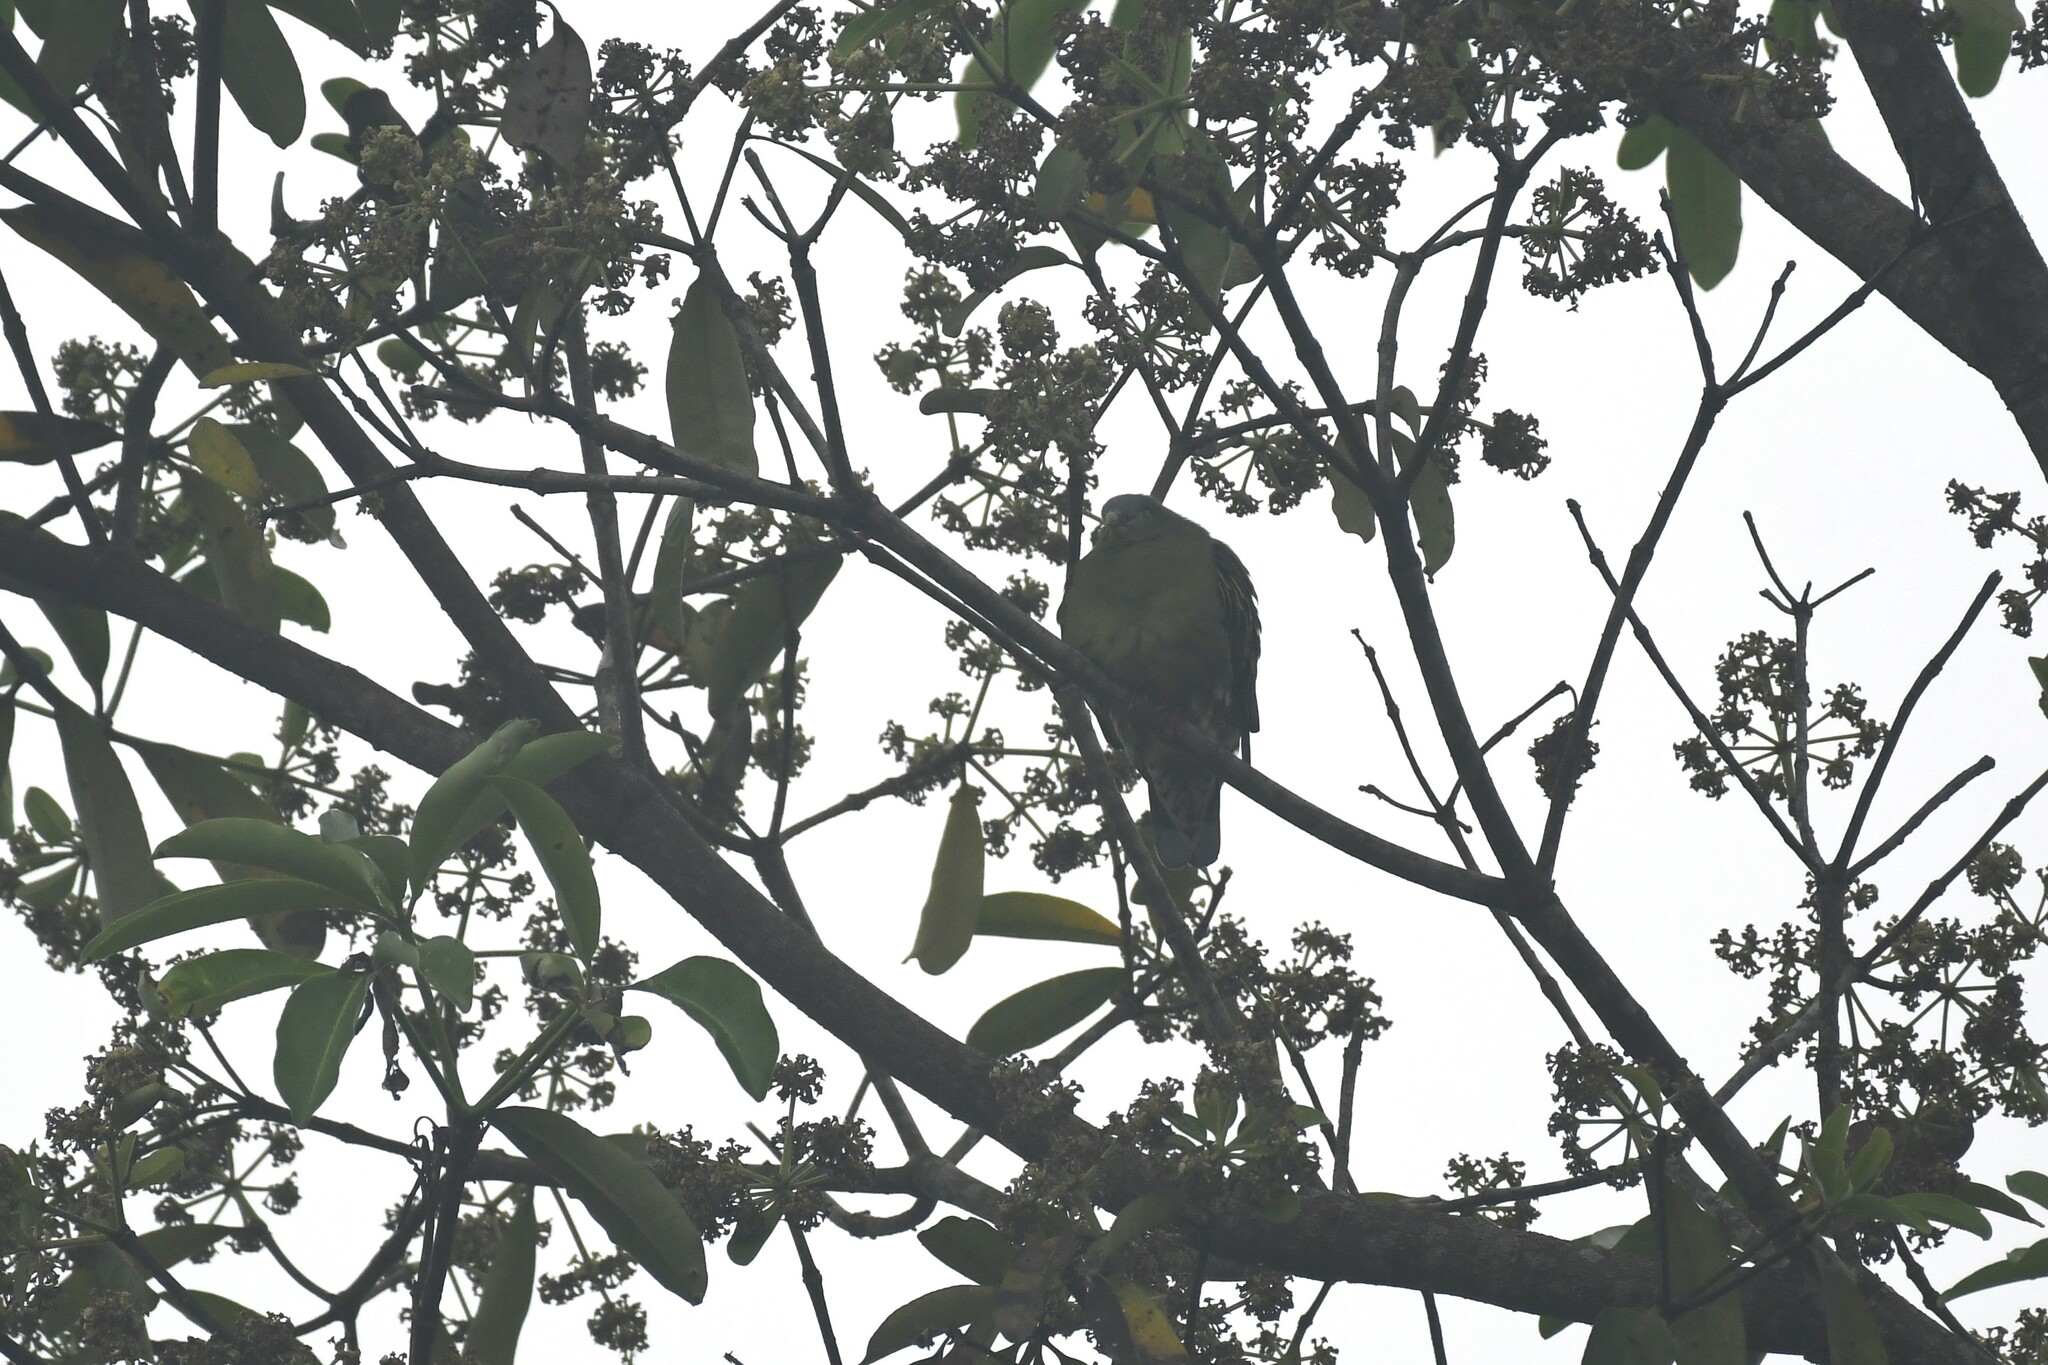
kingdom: Animalia
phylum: Chordata
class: Aves
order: Columbiformes
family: Columbidae
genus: Treron
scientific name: Treron curvirostra
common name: Thick-billed green pigeon
